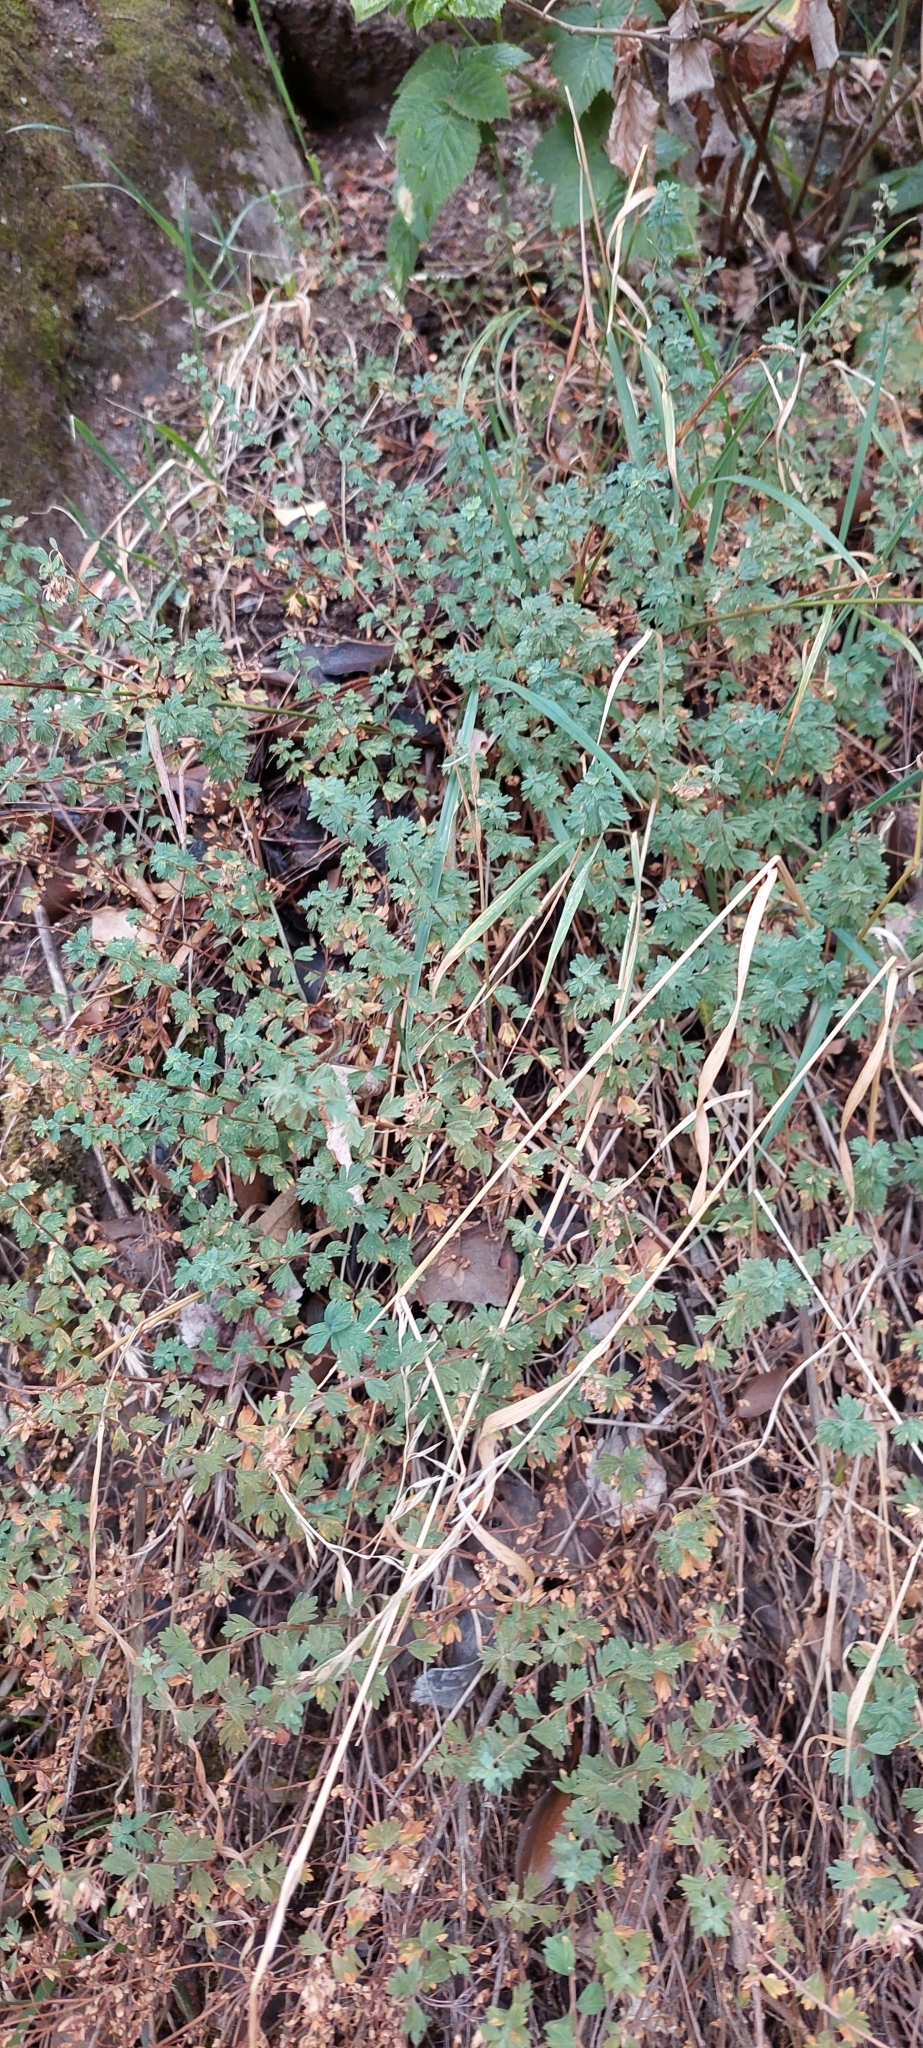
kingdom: Plantae
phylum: Tracheophyta
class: Magnoliopsida
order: Geraniales
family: Vivianiaceae
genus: Wendtia
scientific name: Wendtia gracilis
